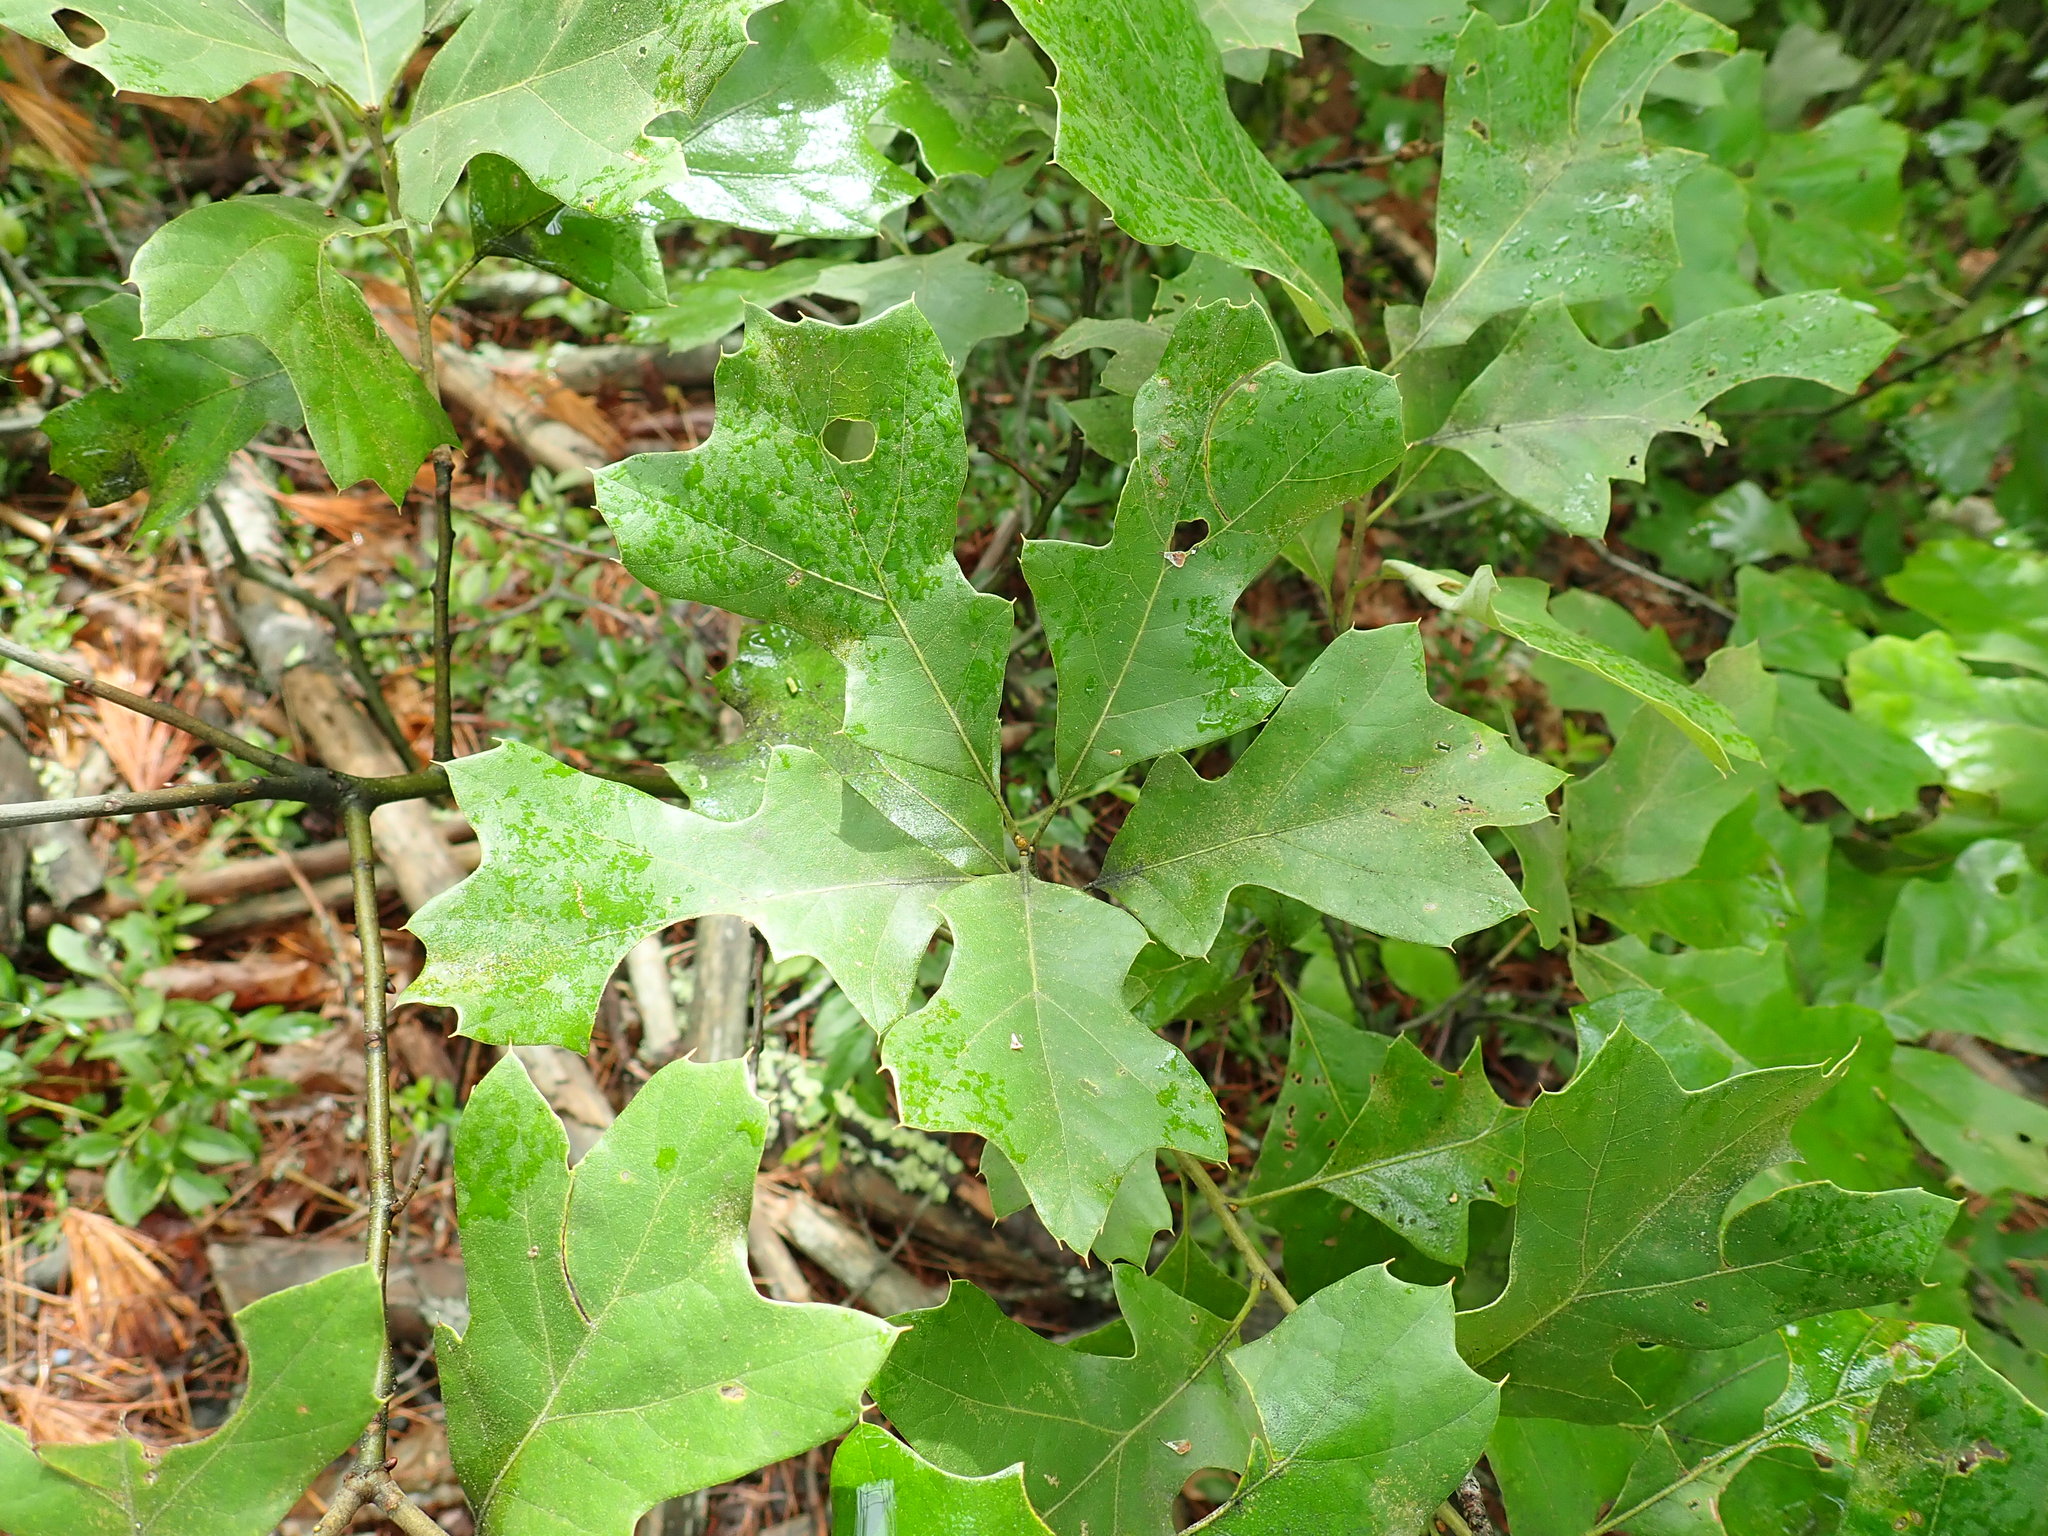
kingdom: Plantae
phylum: Tracheophyta
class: Magnoliopsida
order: Fagales
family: Fagaceae
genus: Quercus
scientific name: Quercus ilicifolia
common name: Bear oak
